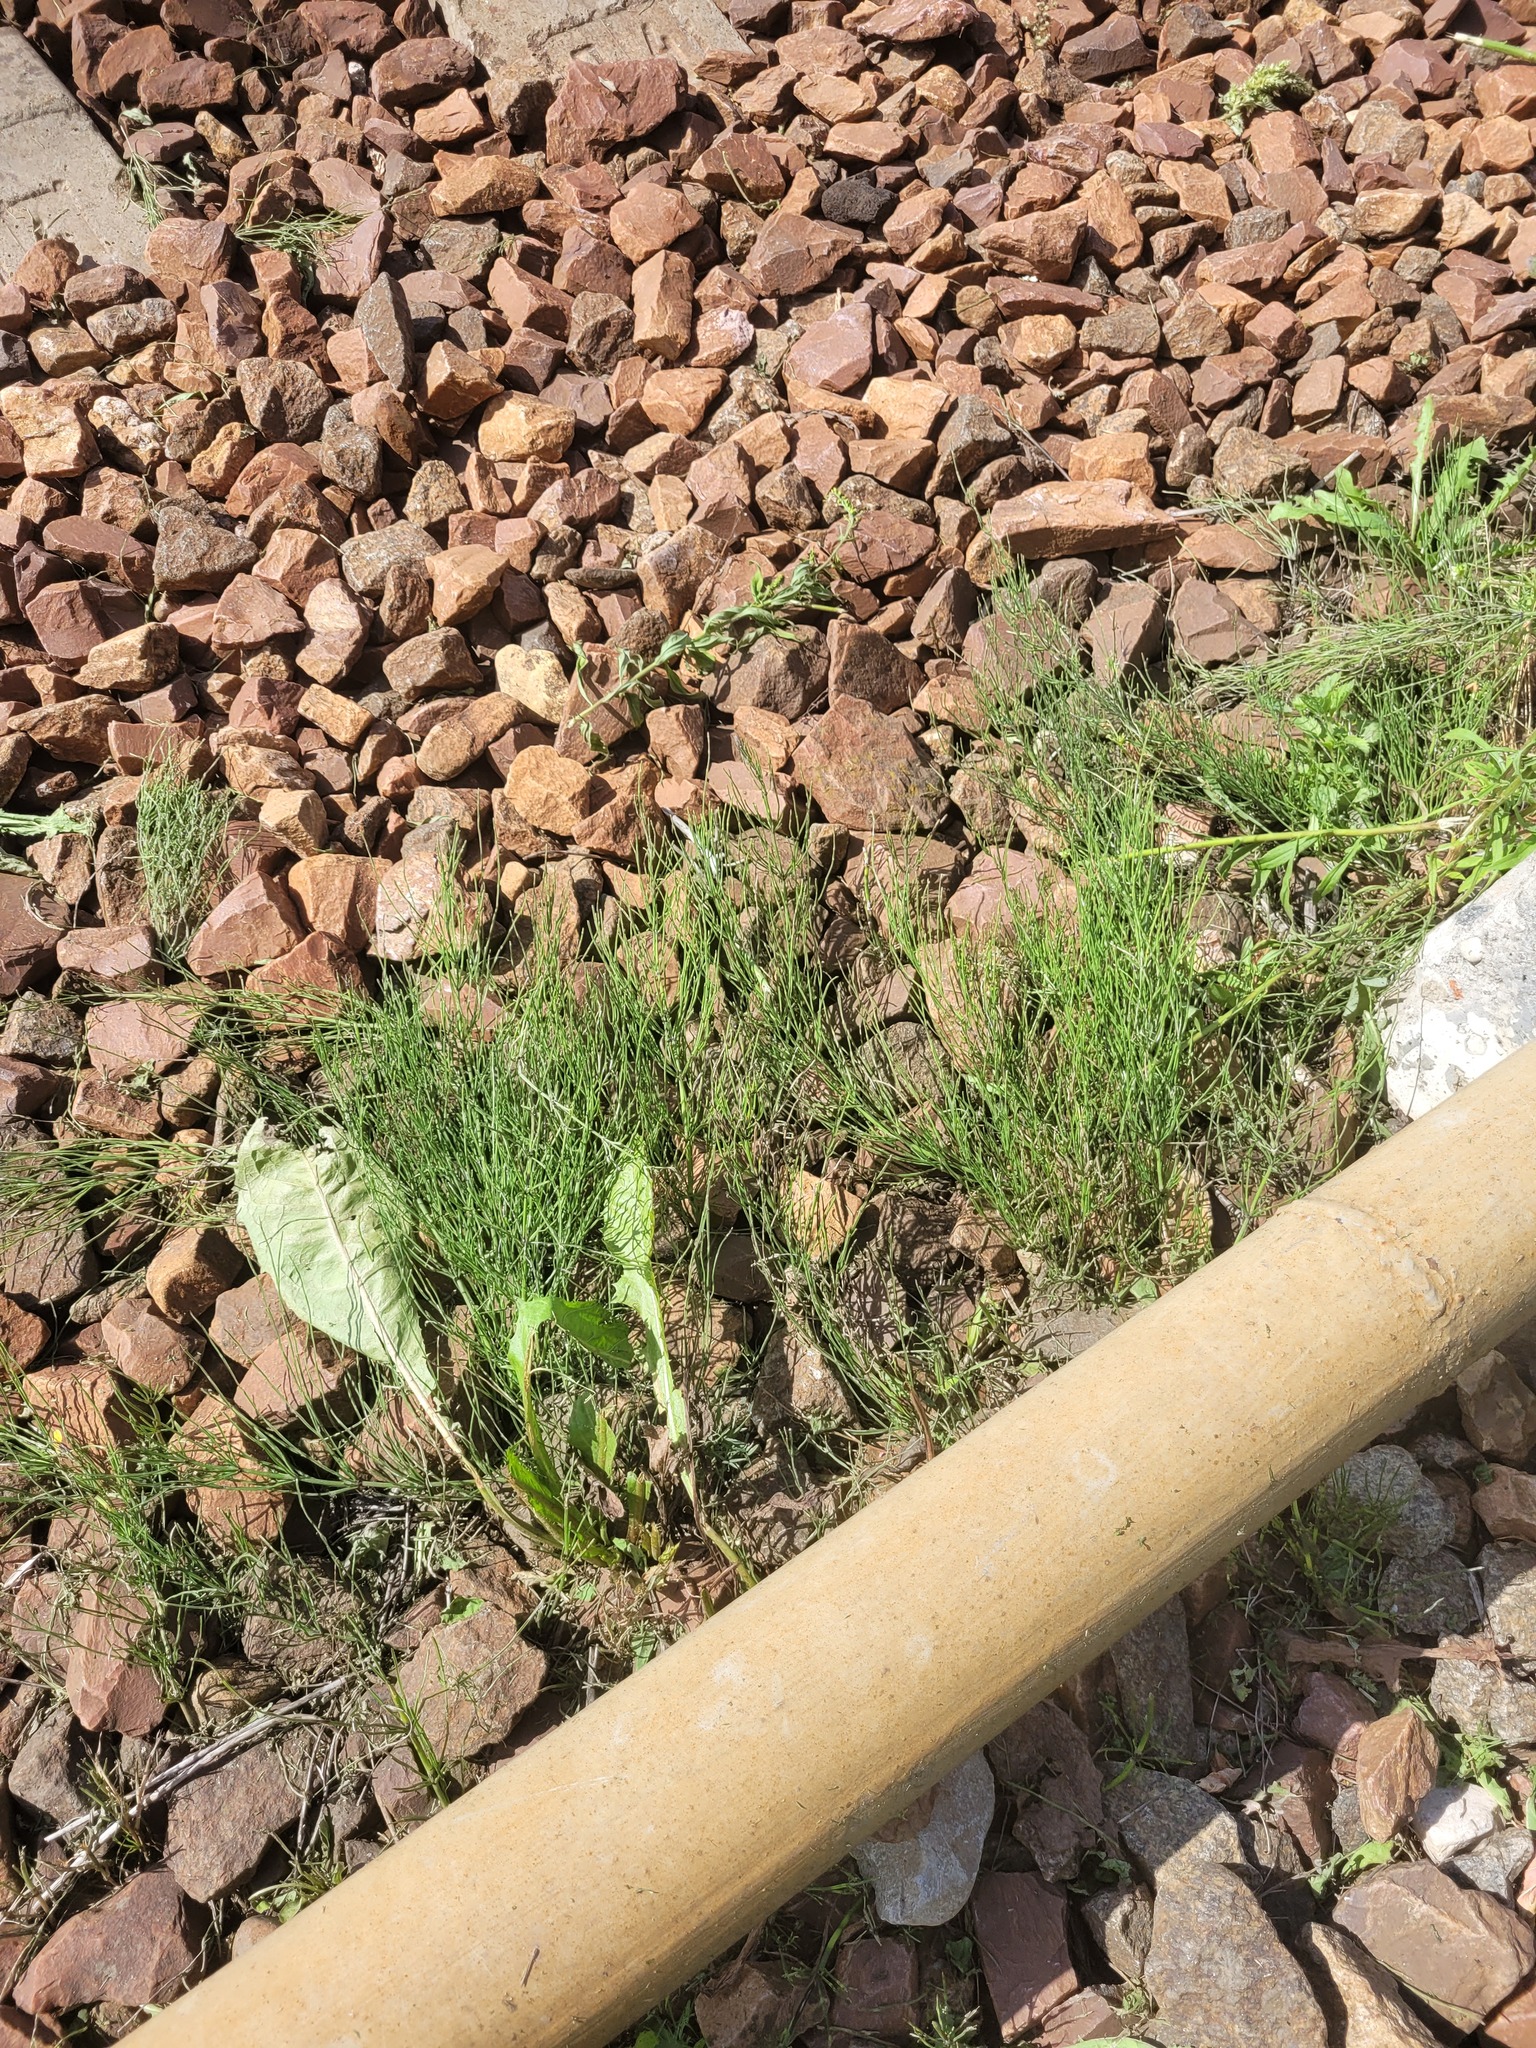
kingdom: Plantae
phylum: Tracheophyta
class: Polypodiopsida
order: Equisetales
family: Equisetaceae
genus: Equisetum
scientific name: Equisetum arvense
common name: Field horsetail
